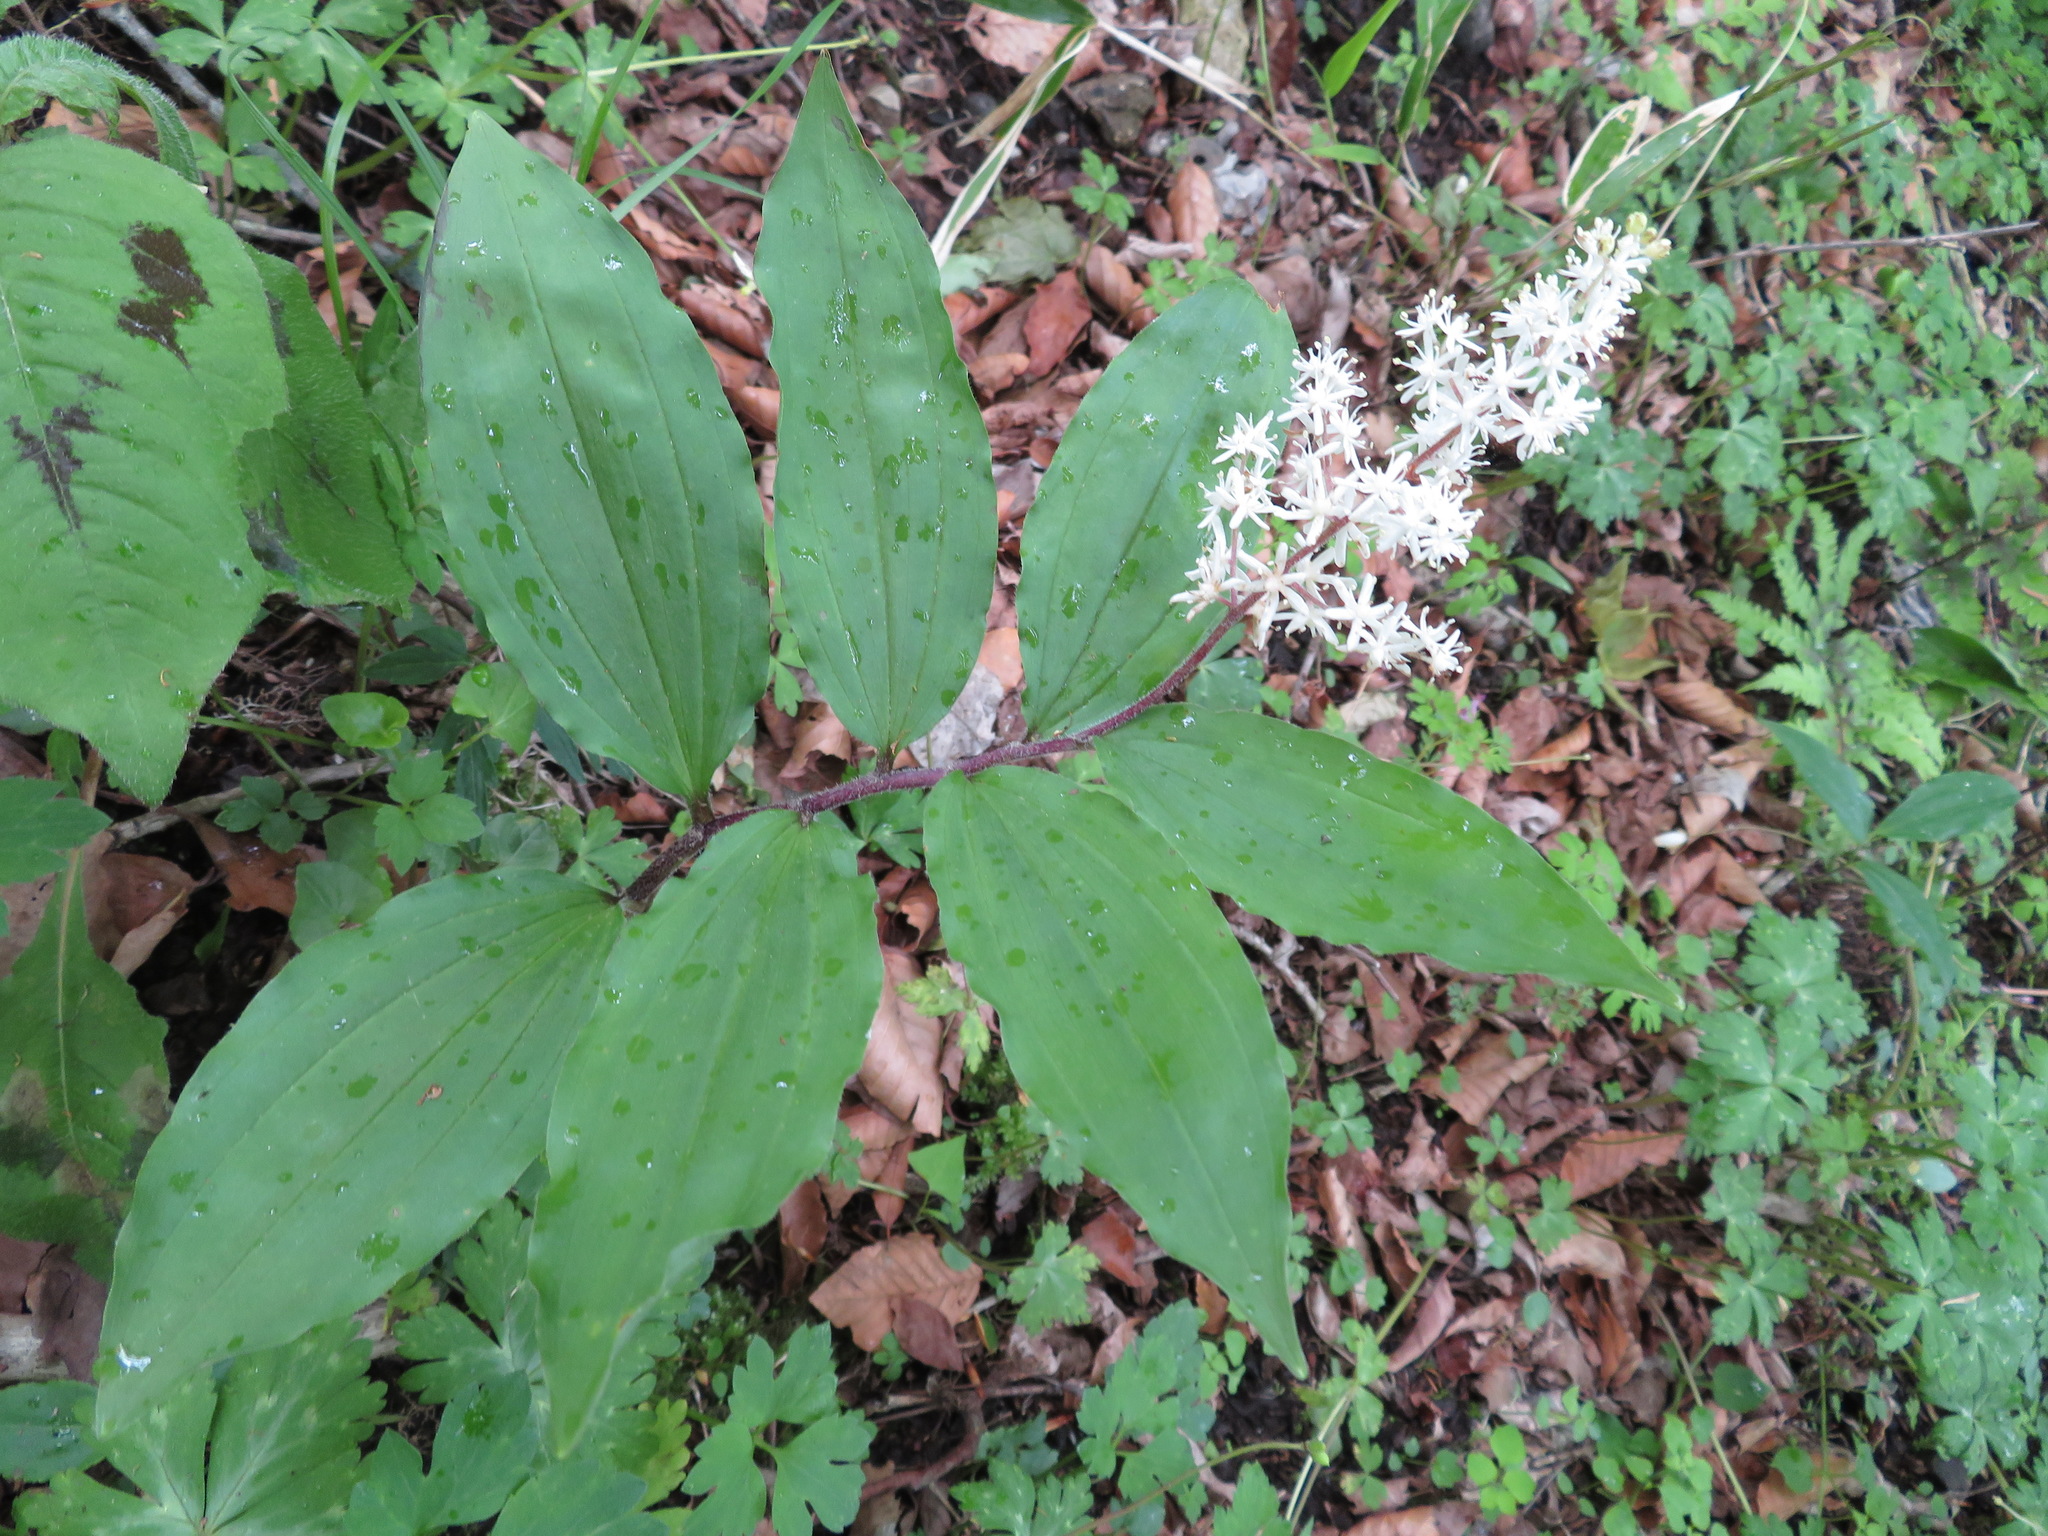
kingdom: Plantae
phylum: Tracheophyta
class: Liliopsida
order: Asparagales
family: Asparagaceae
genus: Maianthemum
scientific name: Maianthemum japonicum
